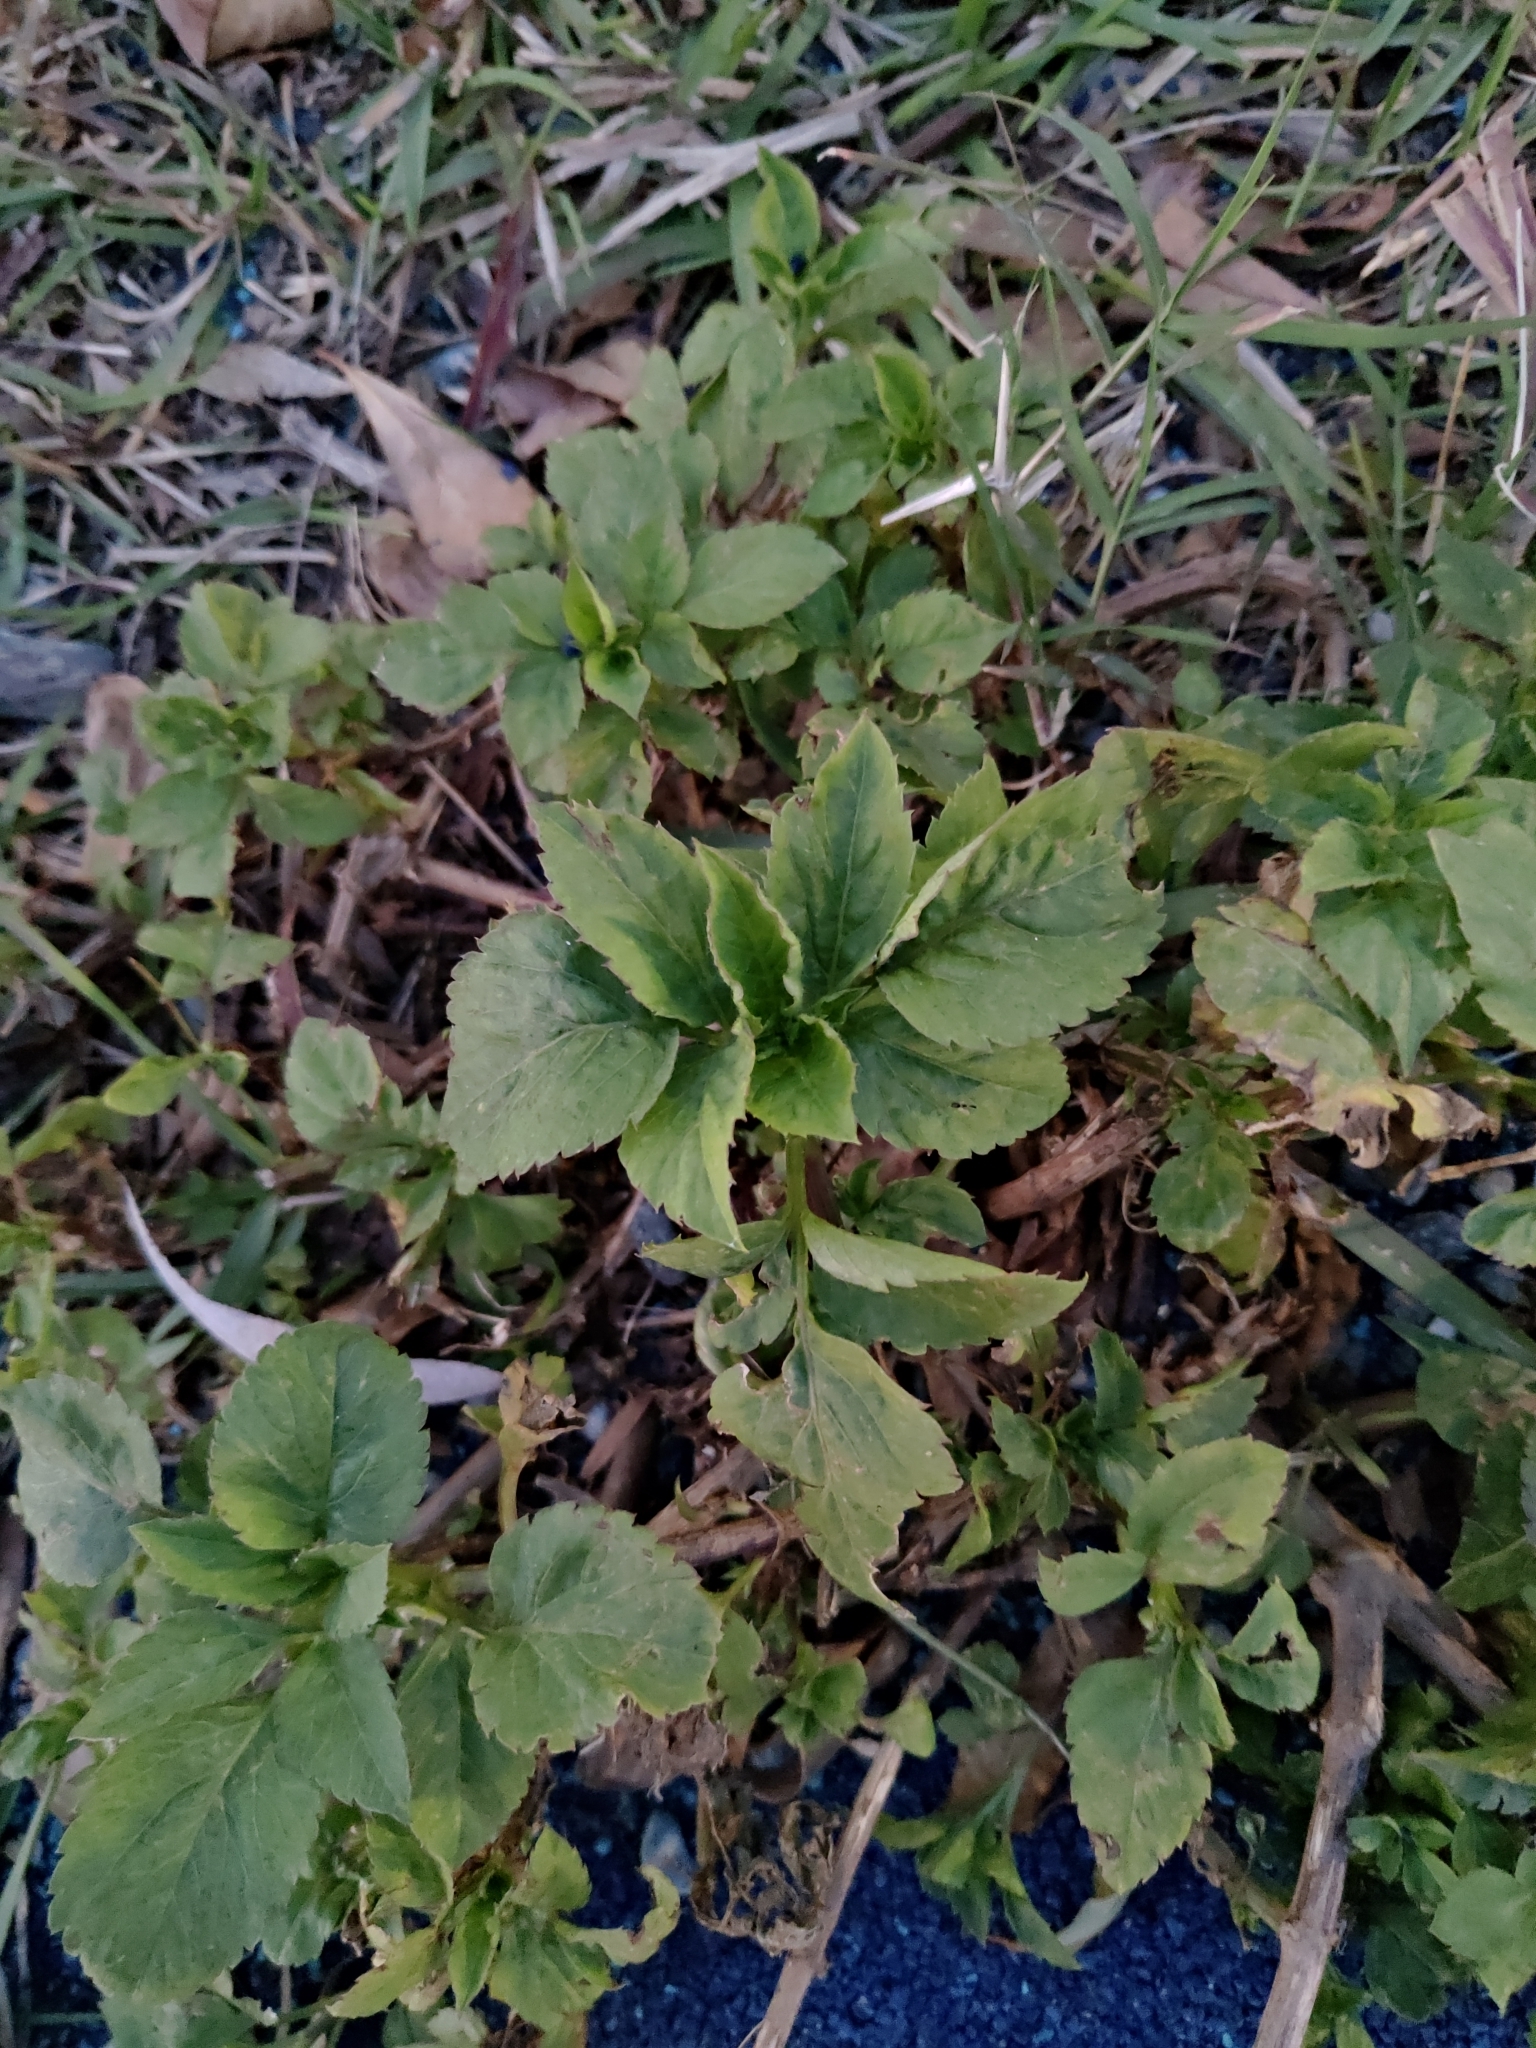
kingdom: Plantae
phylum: Tracheophyta
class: Magnoliopsida
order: Asterales
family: Asteraceae
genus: Bidens
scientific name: Bidens alba
